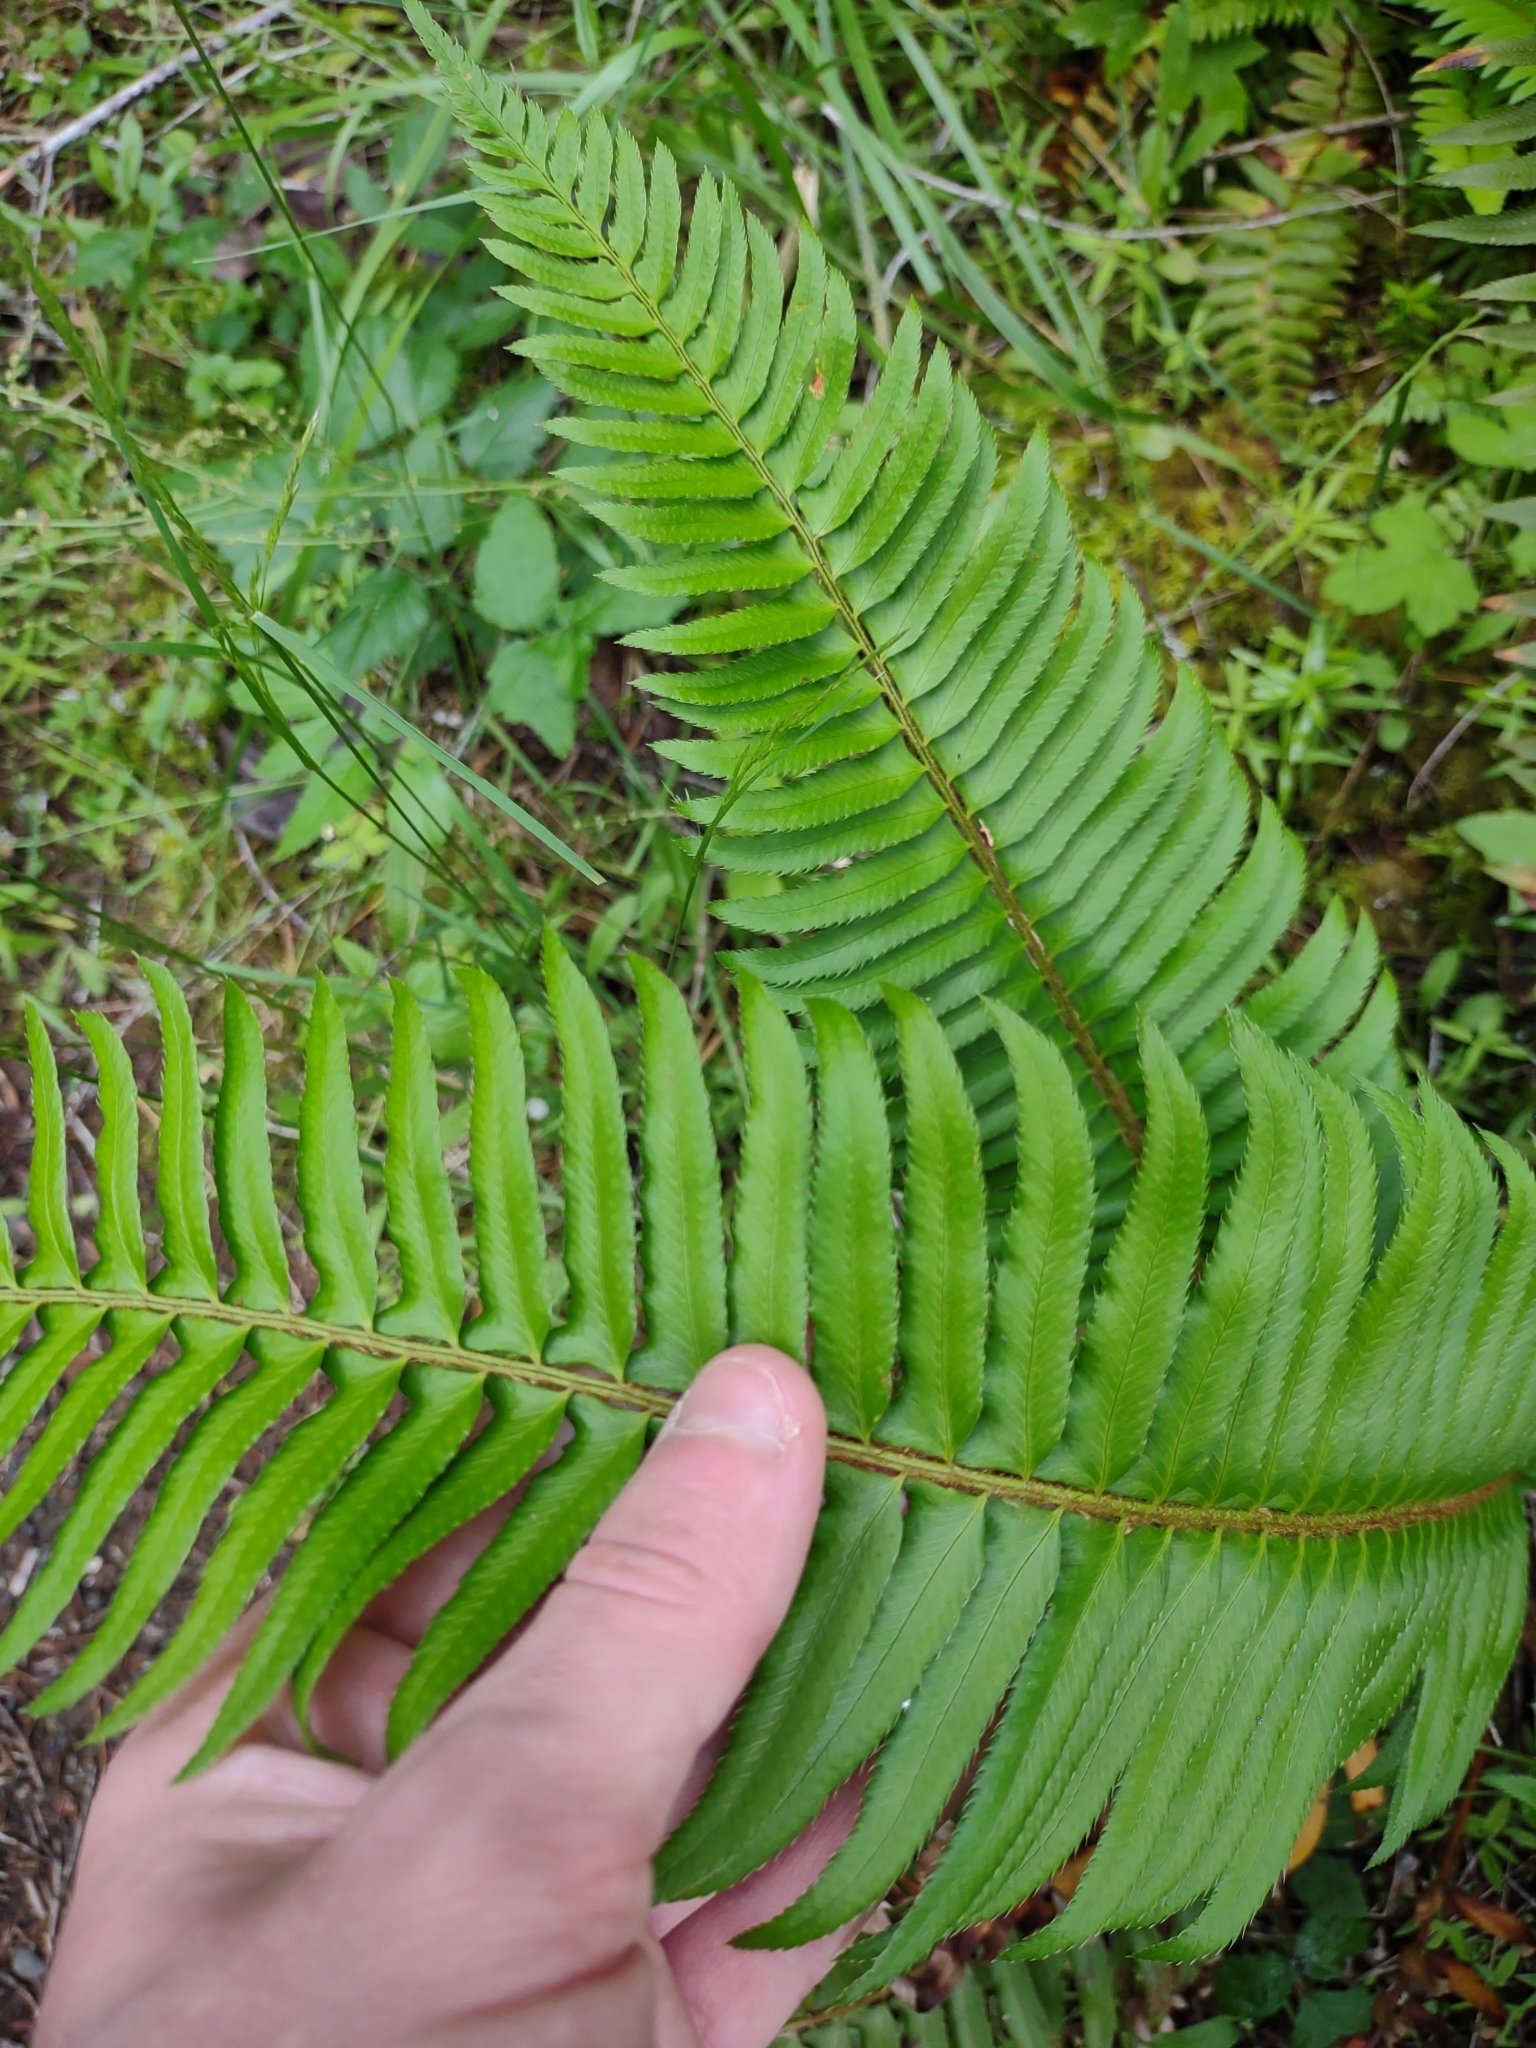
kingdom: Plantae
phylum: Tracheophyta
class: Polypodiopsida
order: Polypodiales
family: Dryopteridaceae
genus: Polystichum
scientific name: Polystichum munitum
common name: Western sword-fern
